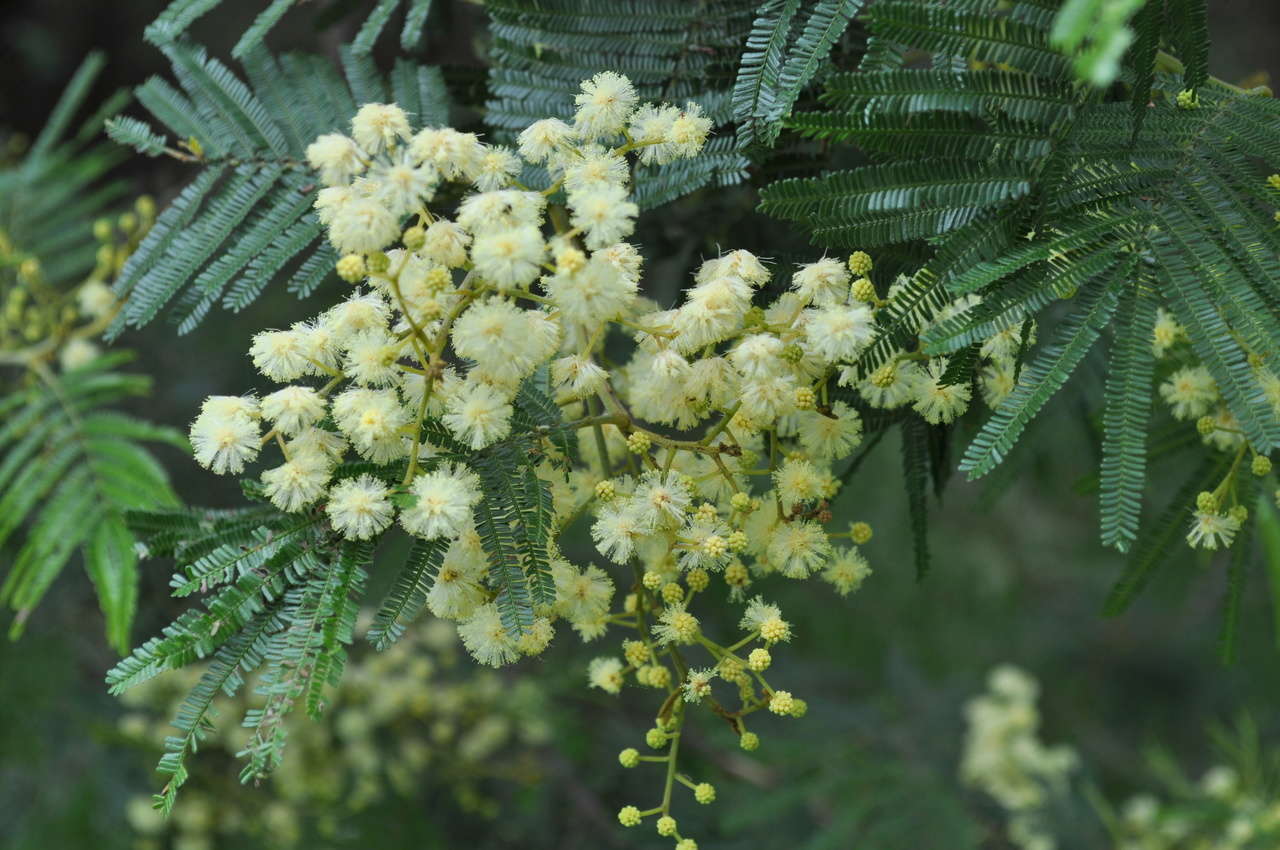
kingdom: Plantae
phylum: Tracheophyta
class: Magnoliopsida
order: Fabales
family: Fabaceae
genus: Acacia
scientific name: Acacia mearnsii
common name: Black wattle
